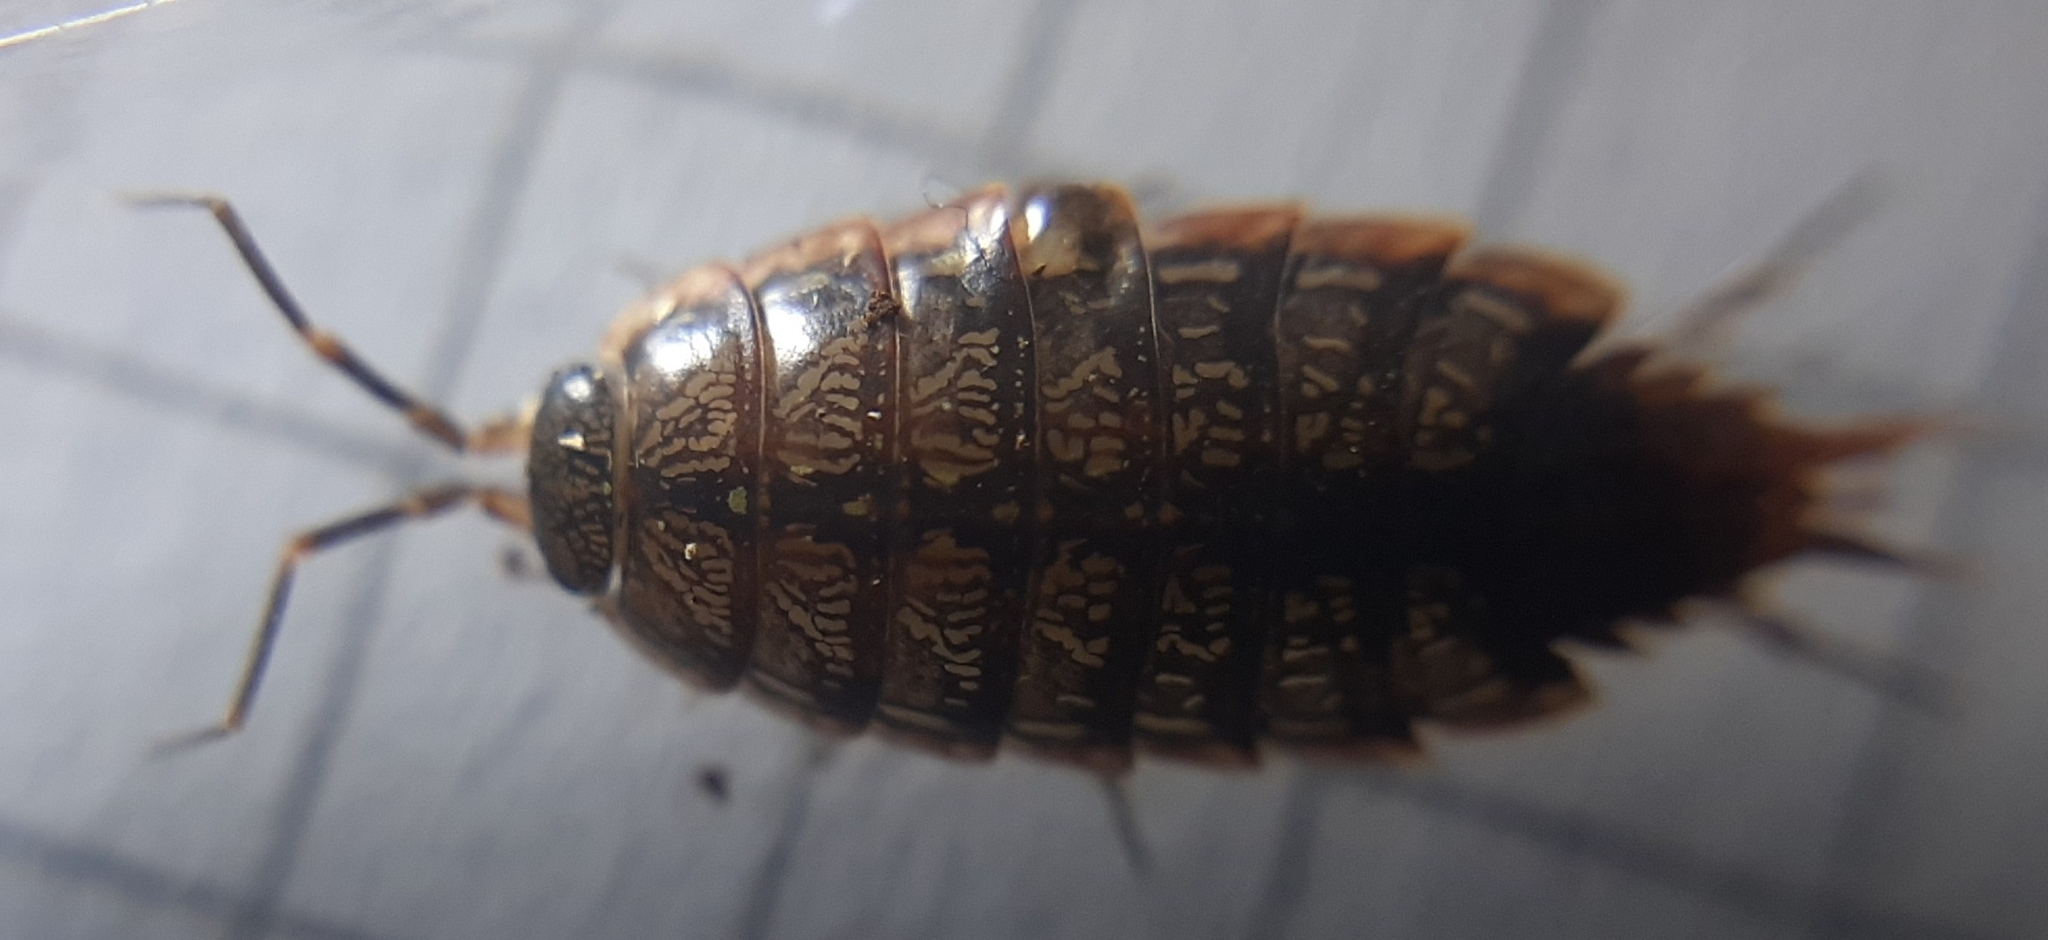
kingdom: Animalia
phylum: Arthropoda
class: Malacostraca
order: Isopoda
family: Philosciidae
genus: Philoscia
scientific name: Philoscia affinis
